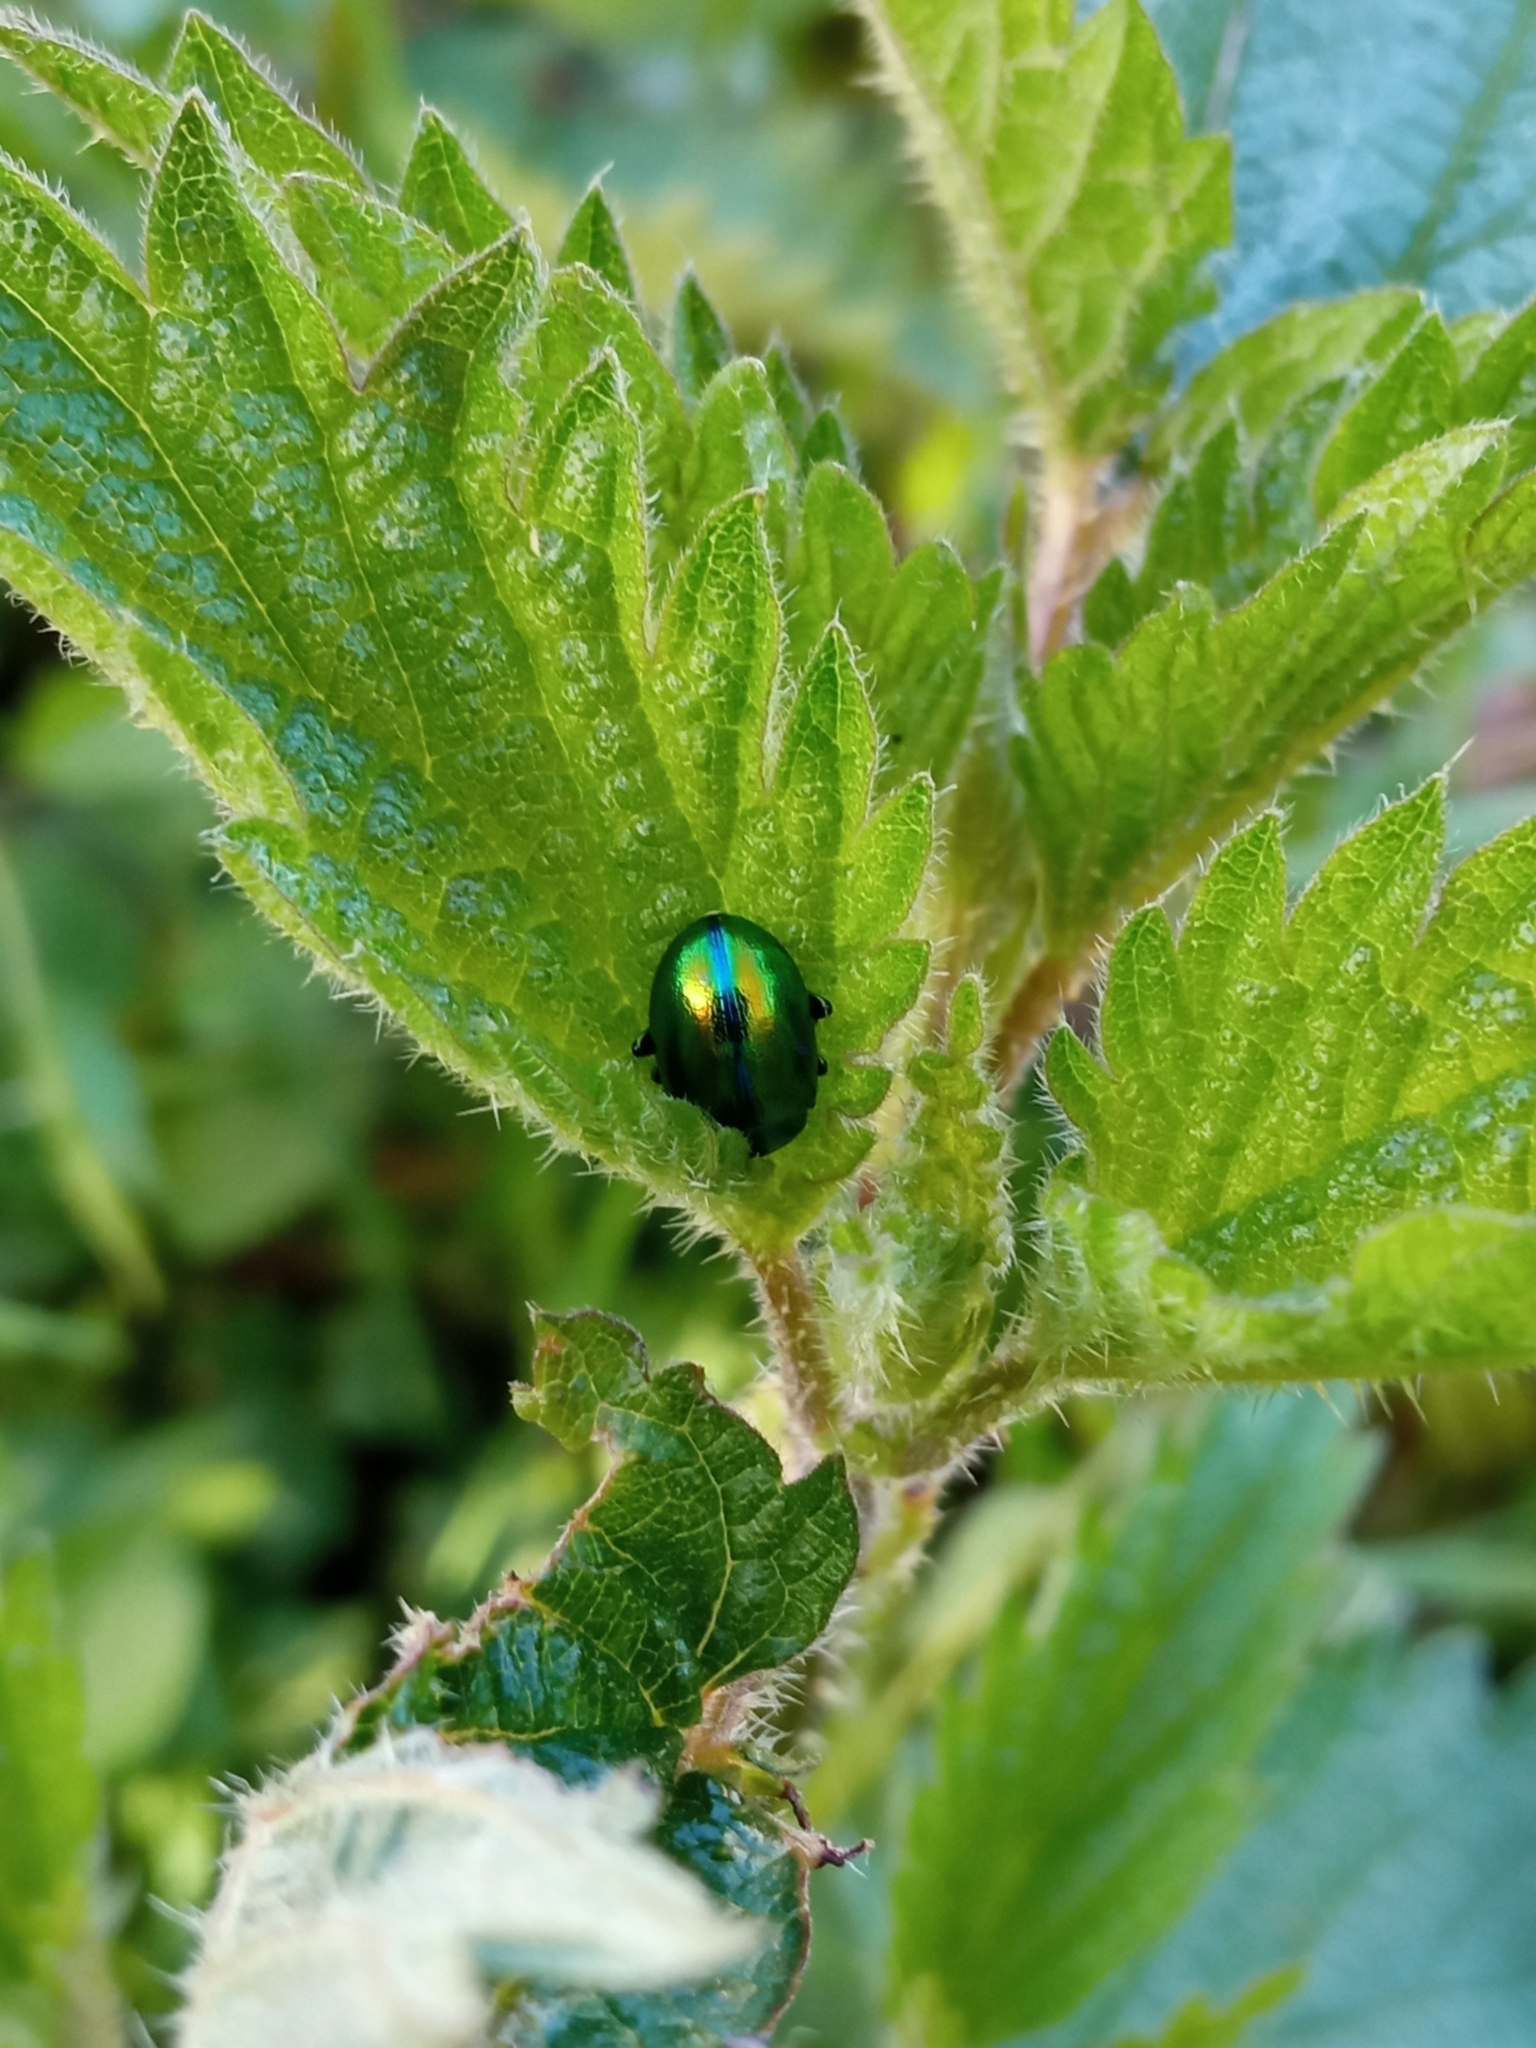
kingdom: Animalia
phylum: Arthropoda
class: Insecta
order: Coleoptera
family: Chrysomelidae
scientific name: Chrysomelidae
